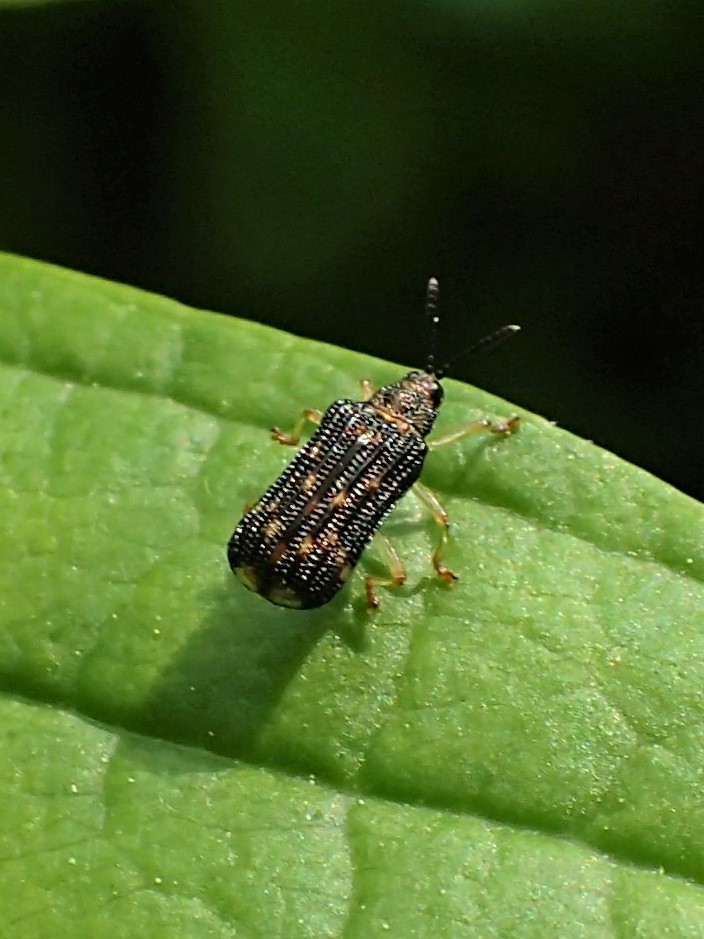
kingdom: Animalia
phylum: Arthropoda
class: Insecta
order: Coleoptera
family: Chrysomelidae
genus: Sumitrosis
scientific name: Sumitrosis inaequalis
